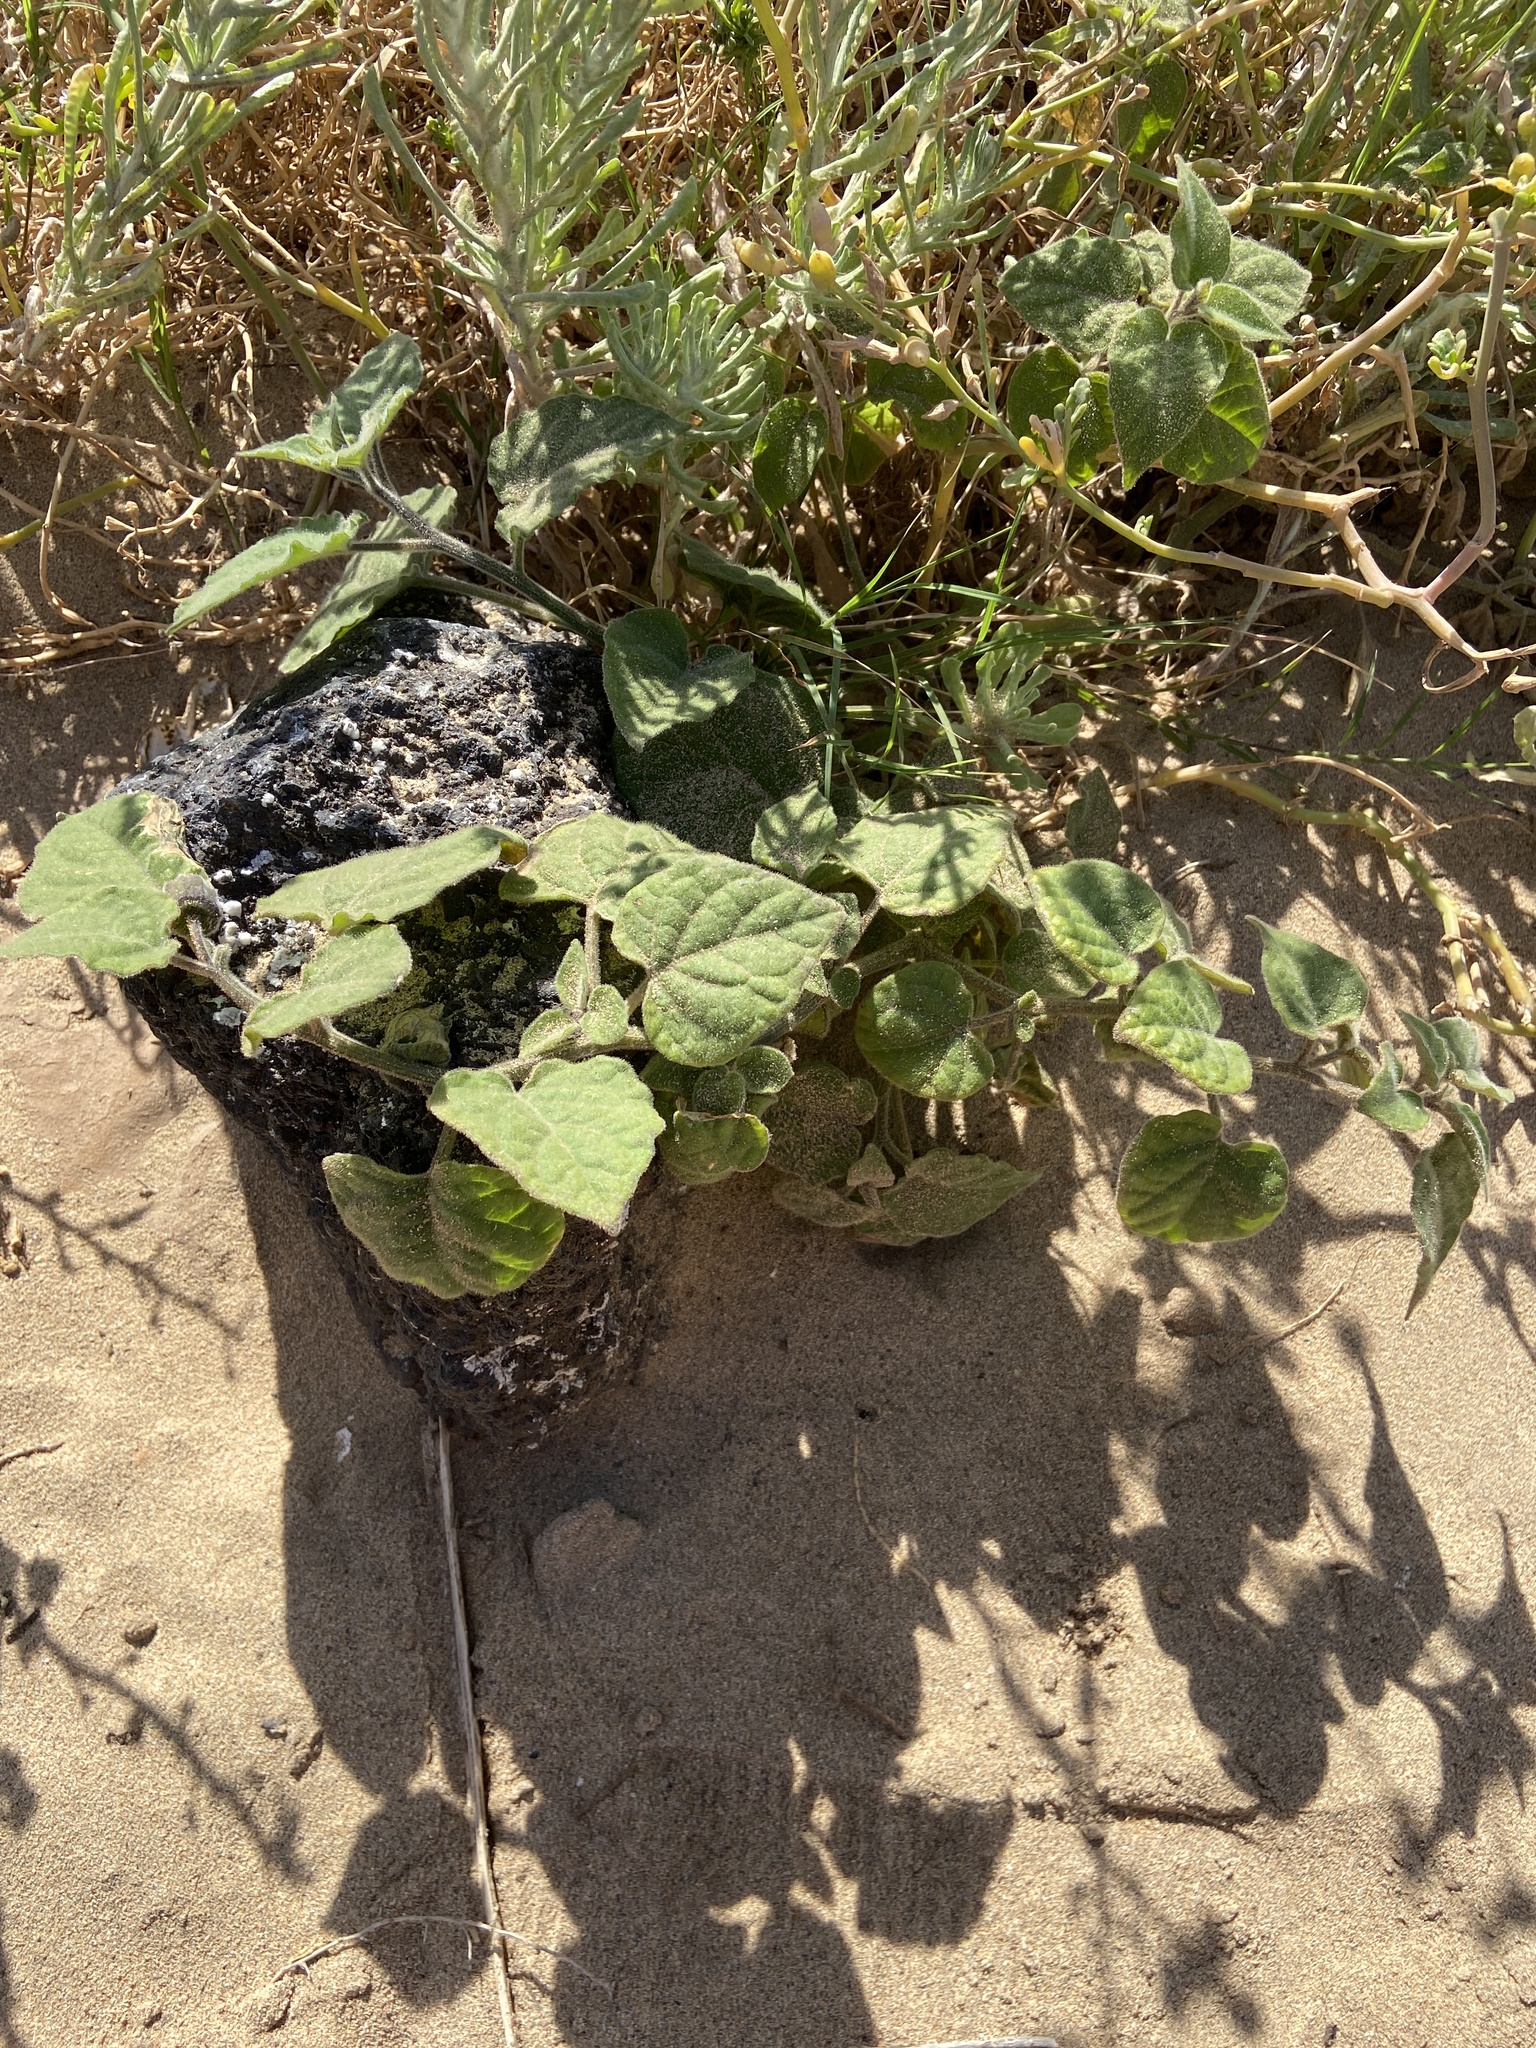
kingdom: Plantae
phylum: Tracheophyta
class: Magnoliopsida
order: Solanales
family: Solanaceae
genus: Physalis
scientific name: Physalis peruviana
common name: Cape-gooseberry
